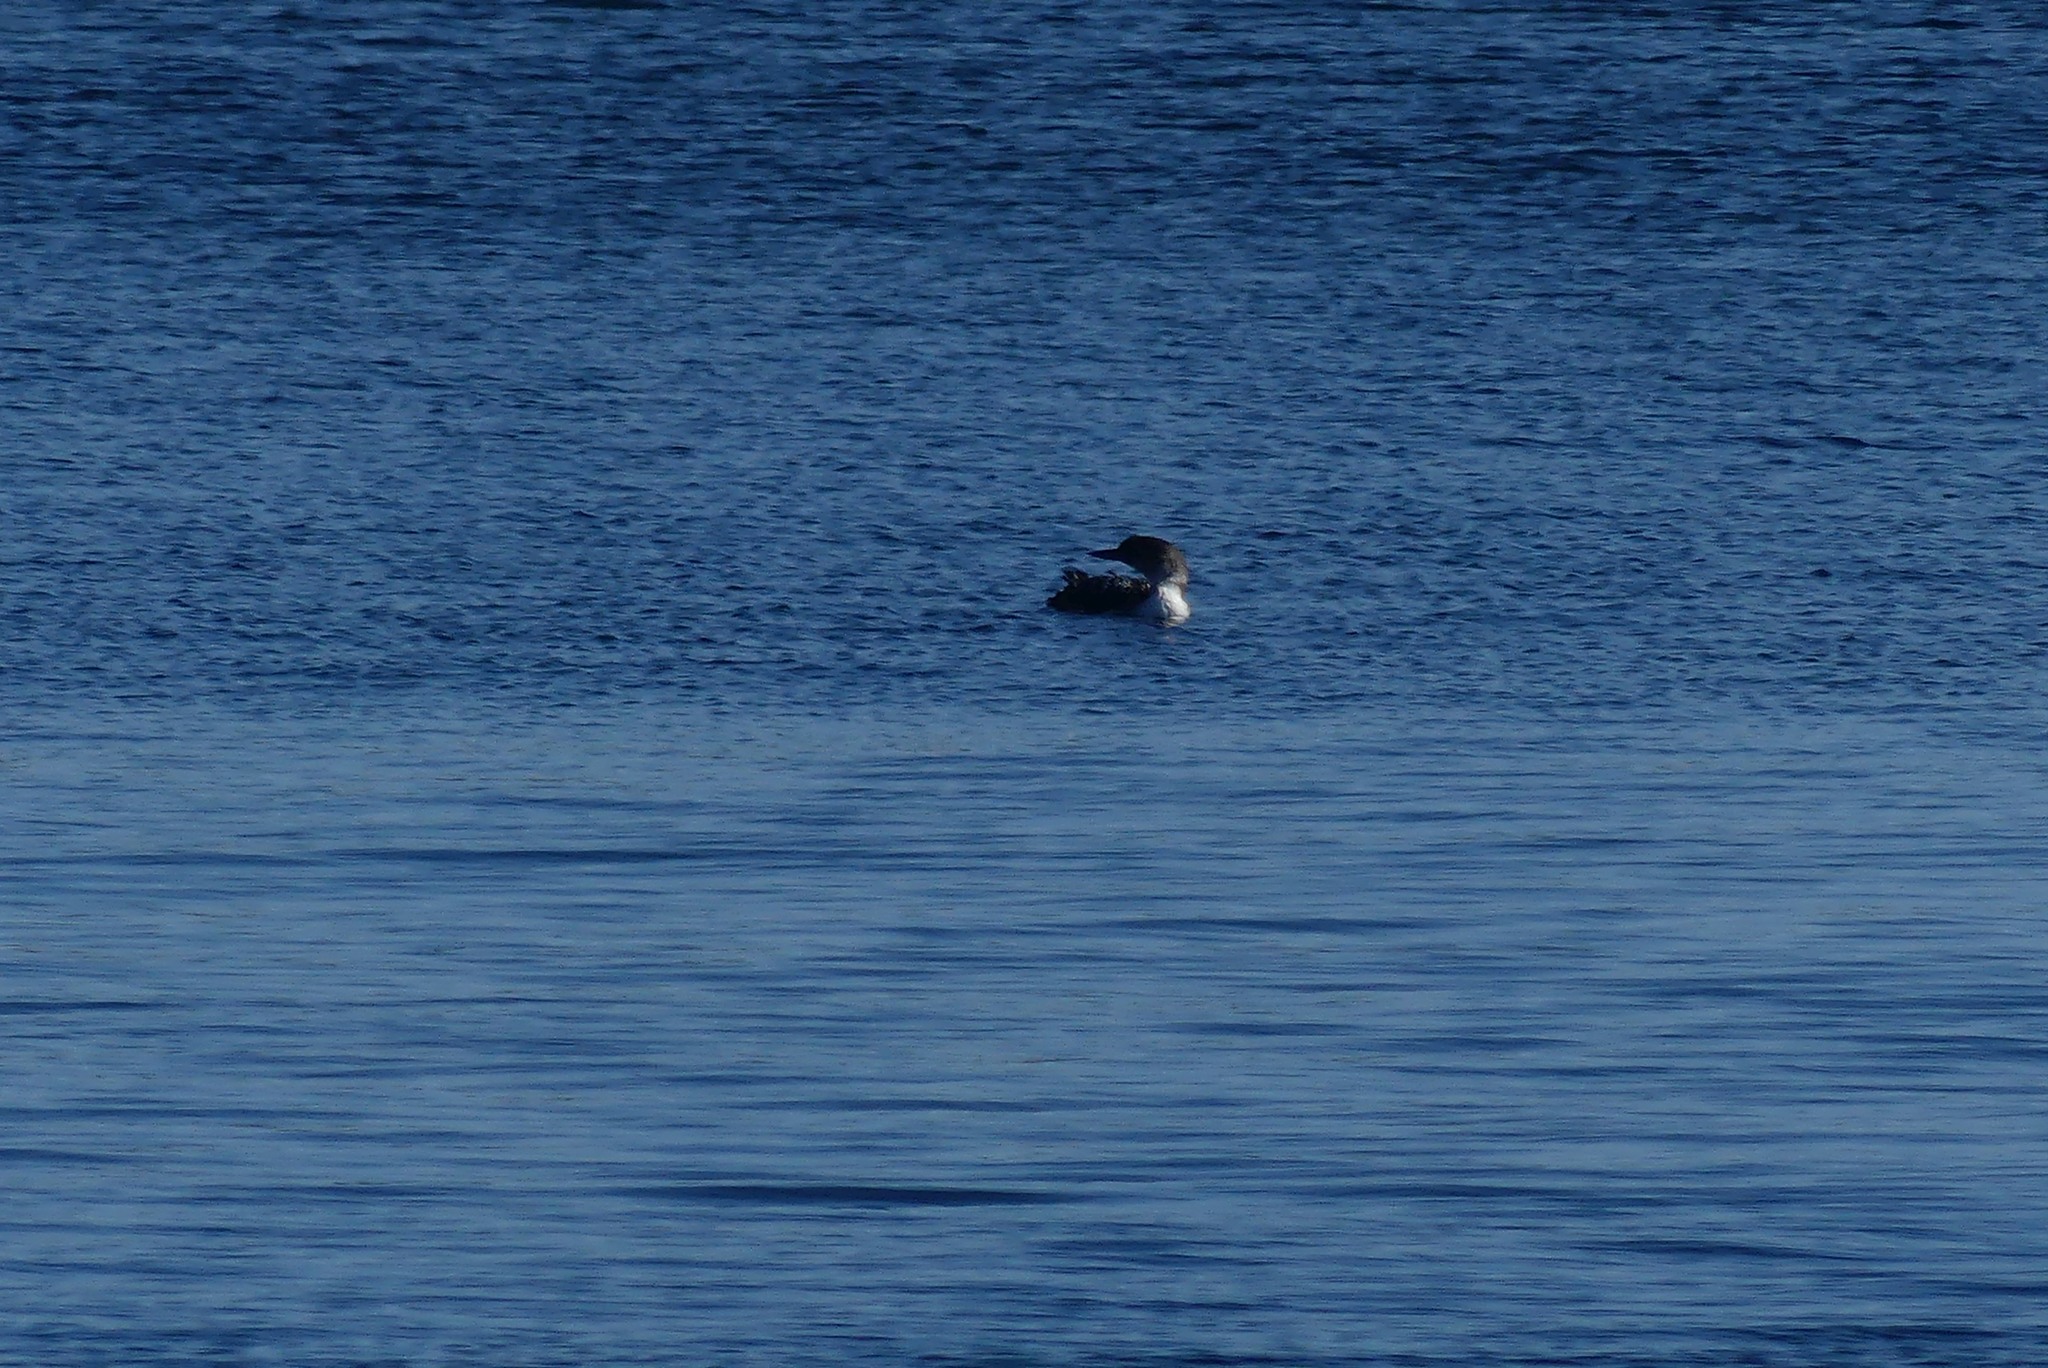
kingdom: Animalia
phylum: Chordata
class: Aves
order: Gaviiformes
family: Gaviidae
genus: Gavia
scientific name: Gavia immer
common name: Common loon
